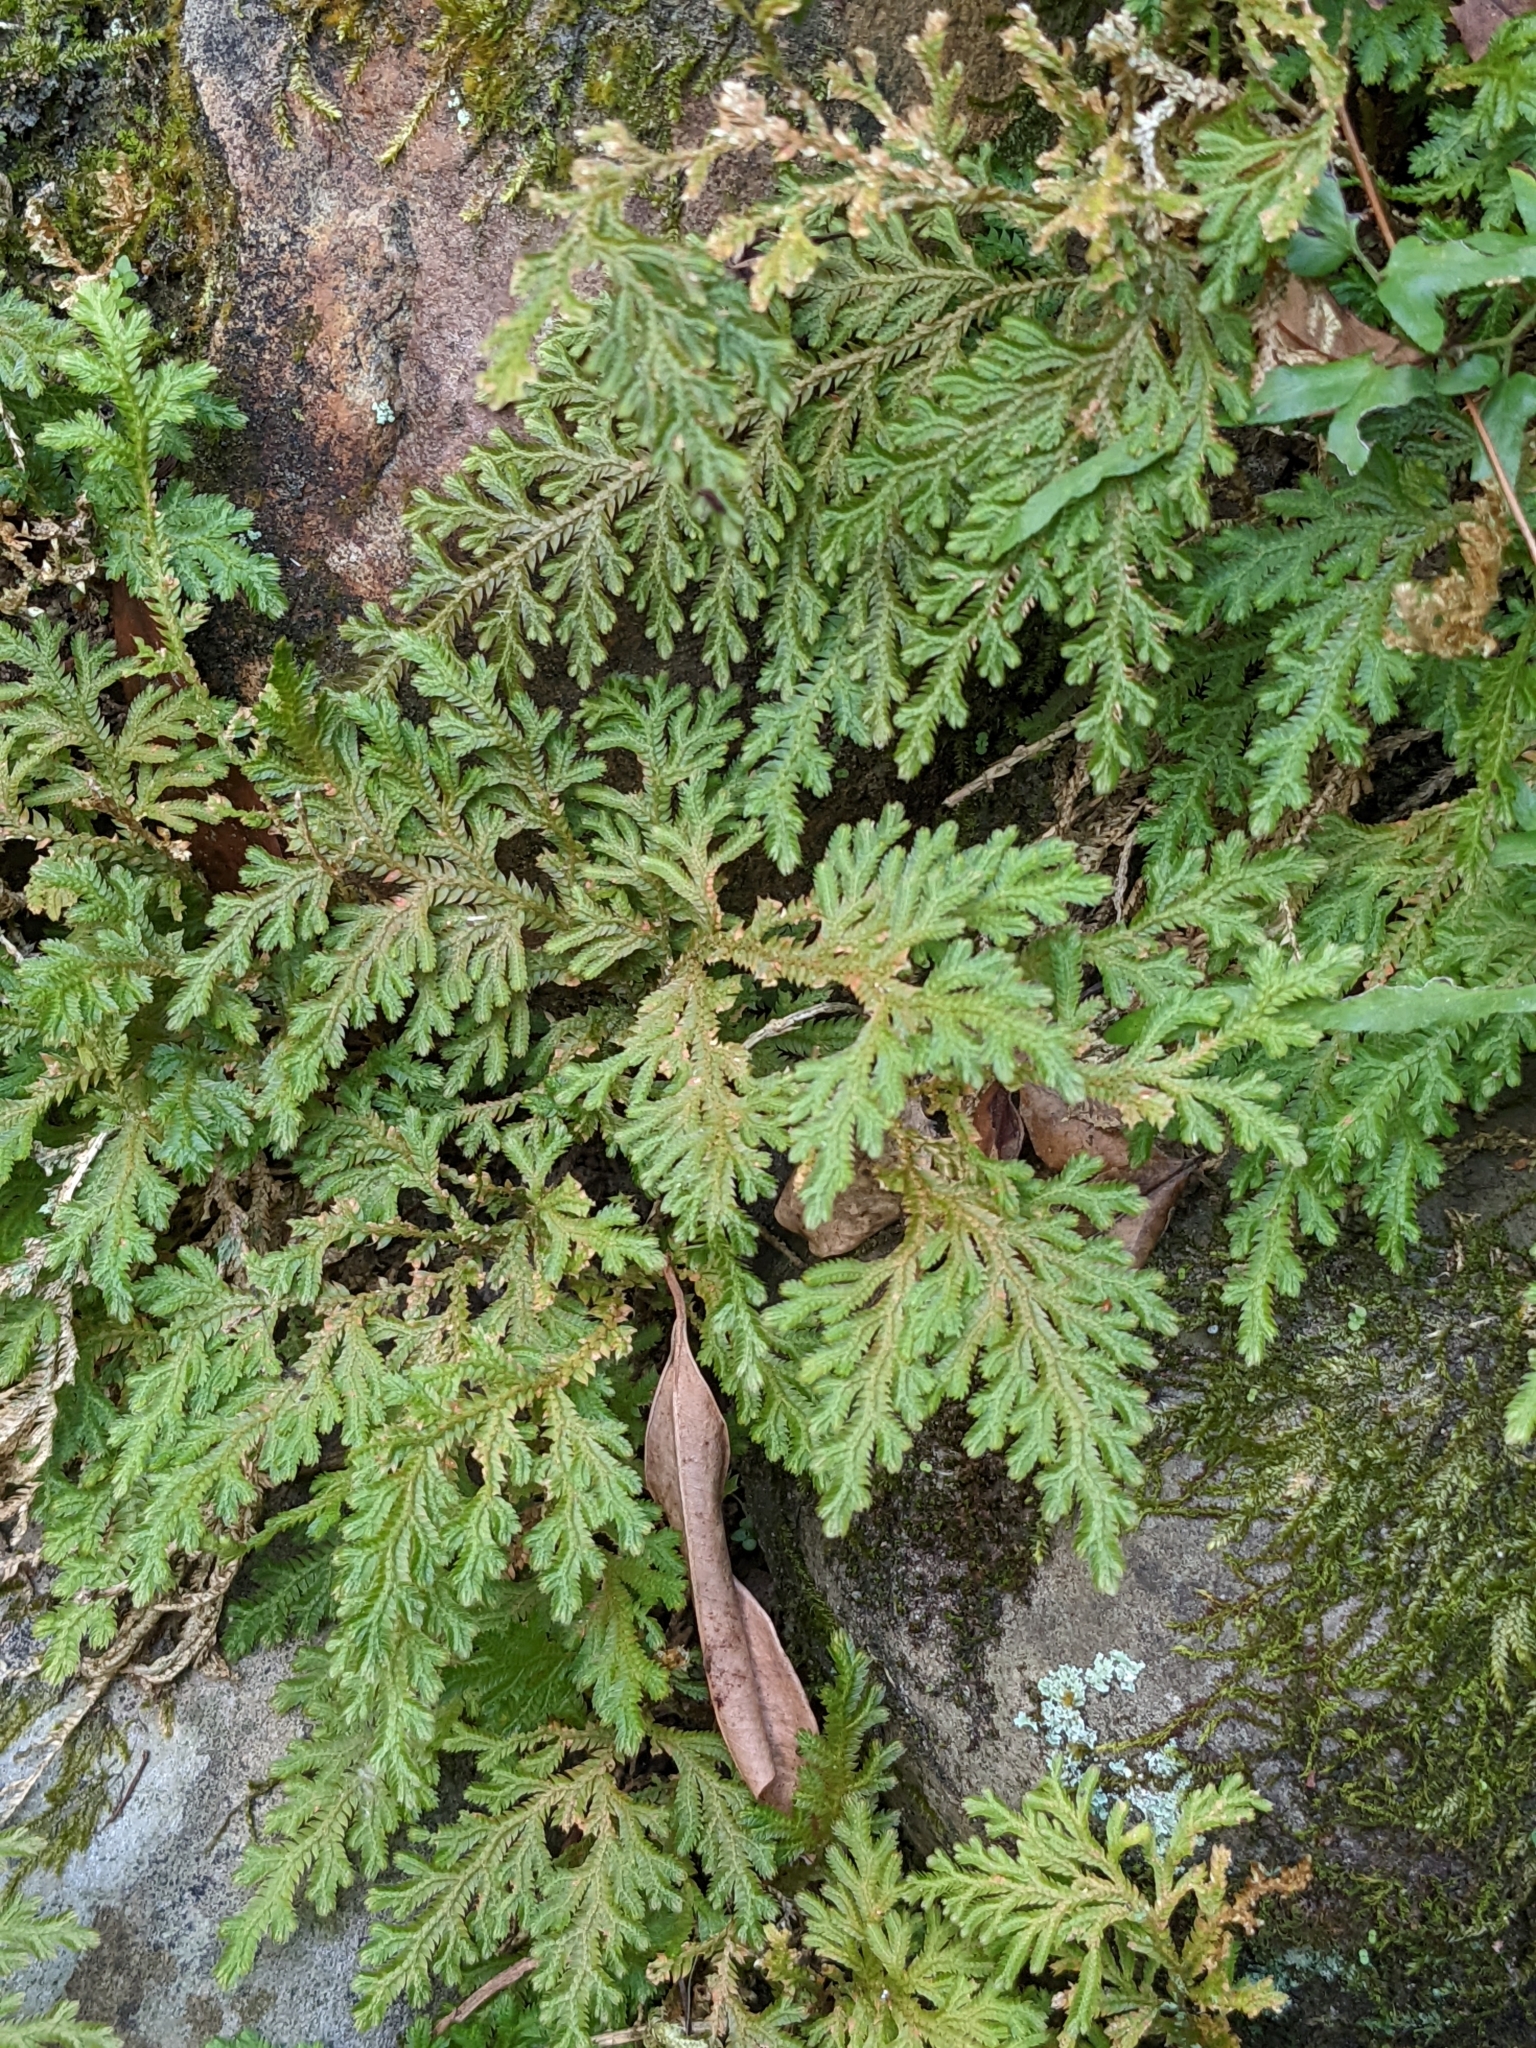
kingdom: Plantae
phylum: Tracheophyta
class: Lycopodiopsida
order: Selaginellales
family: Selaginellaceae
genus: Selaginella
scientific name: Selaginella moellendorffii
